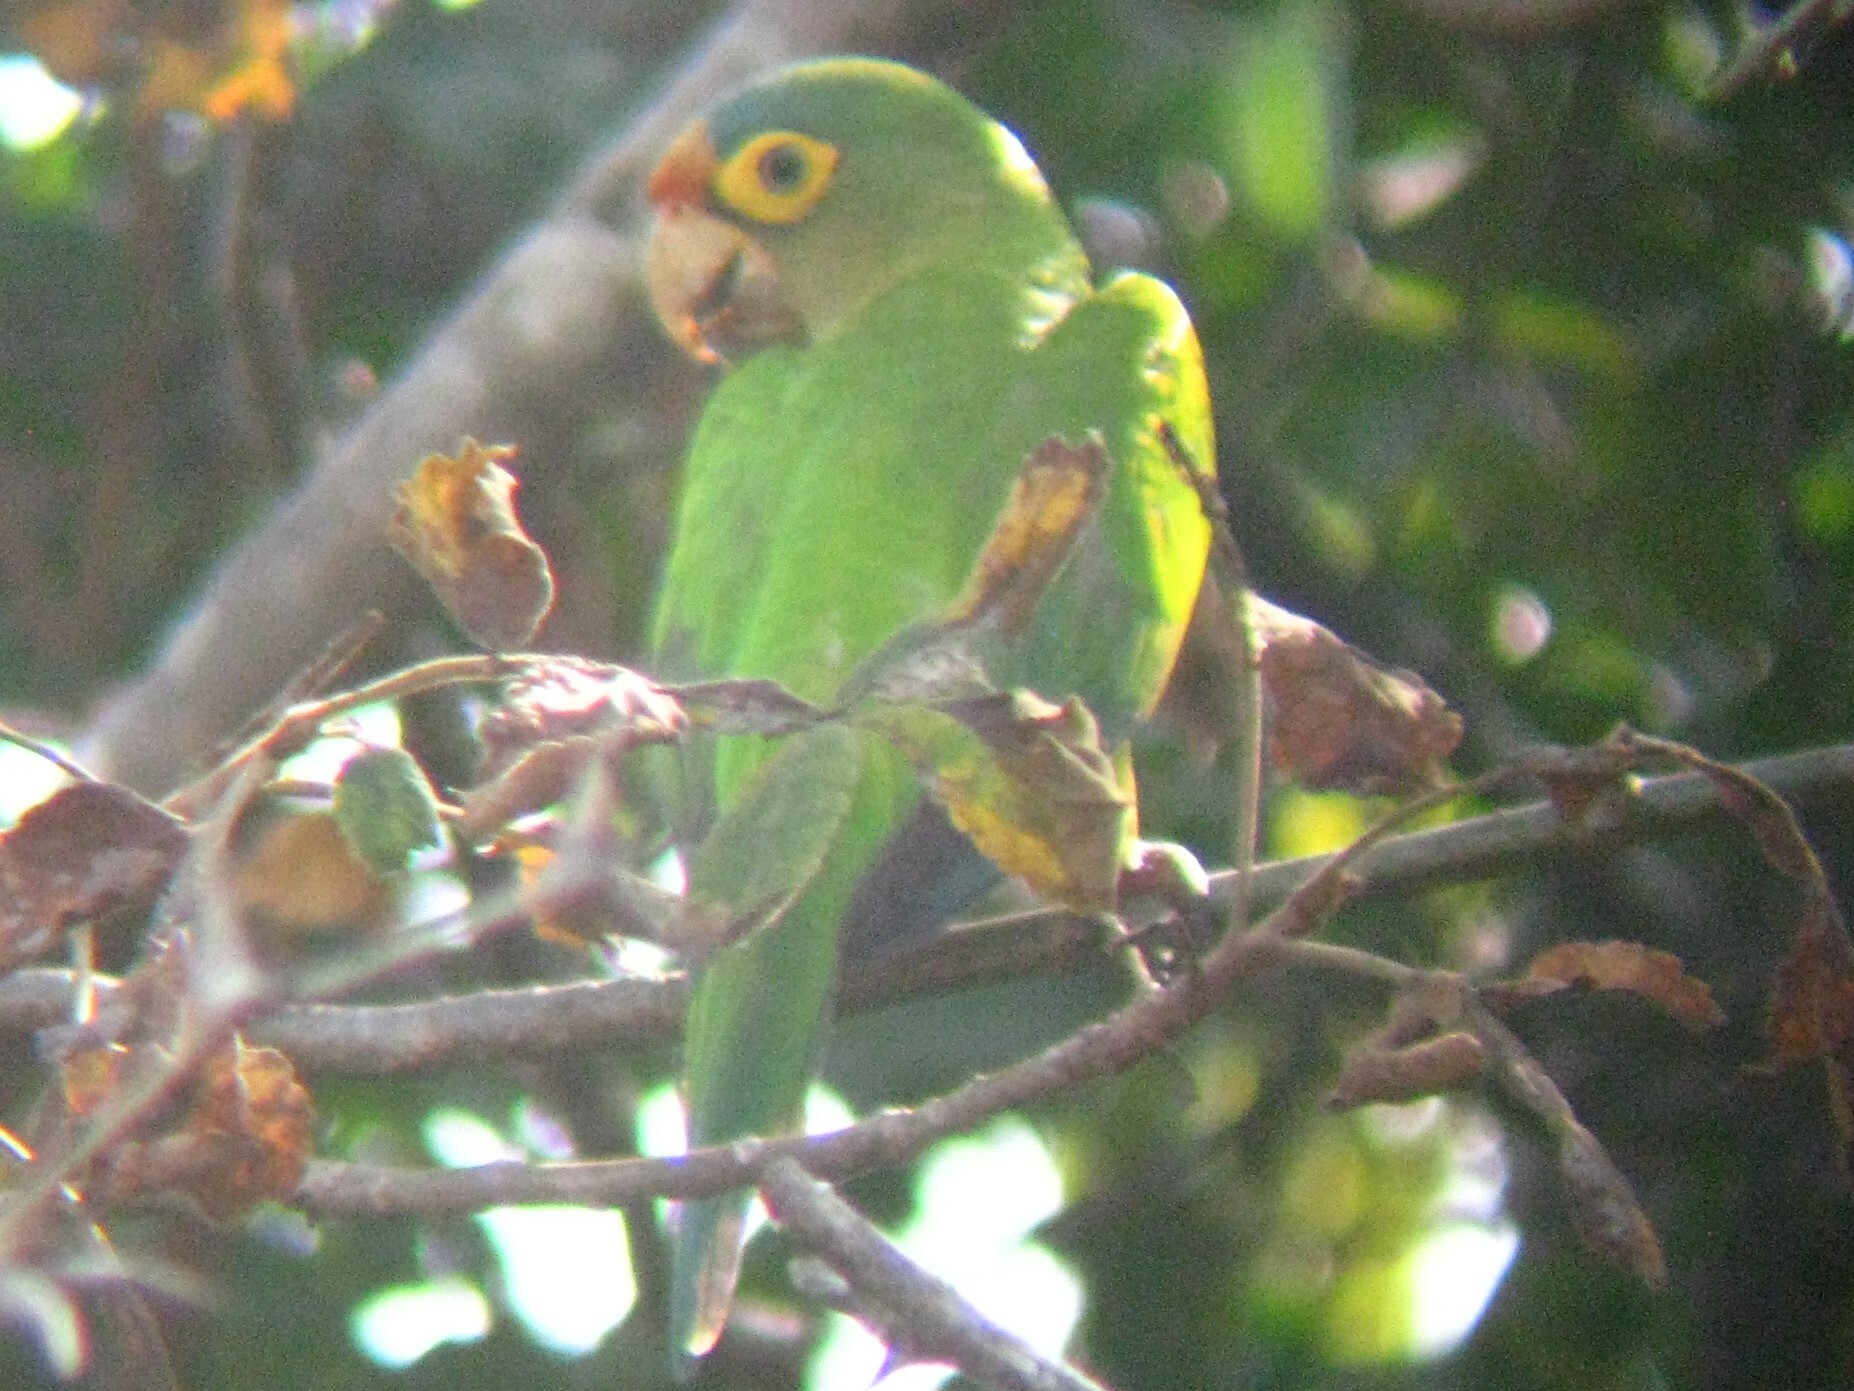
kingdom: Animalia
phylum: Chordata
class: Aves
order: Psittaciformes
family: Psittacidae
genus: Aratinga
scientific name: Aratinga canicularis
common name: Orange-fronted parakeet
